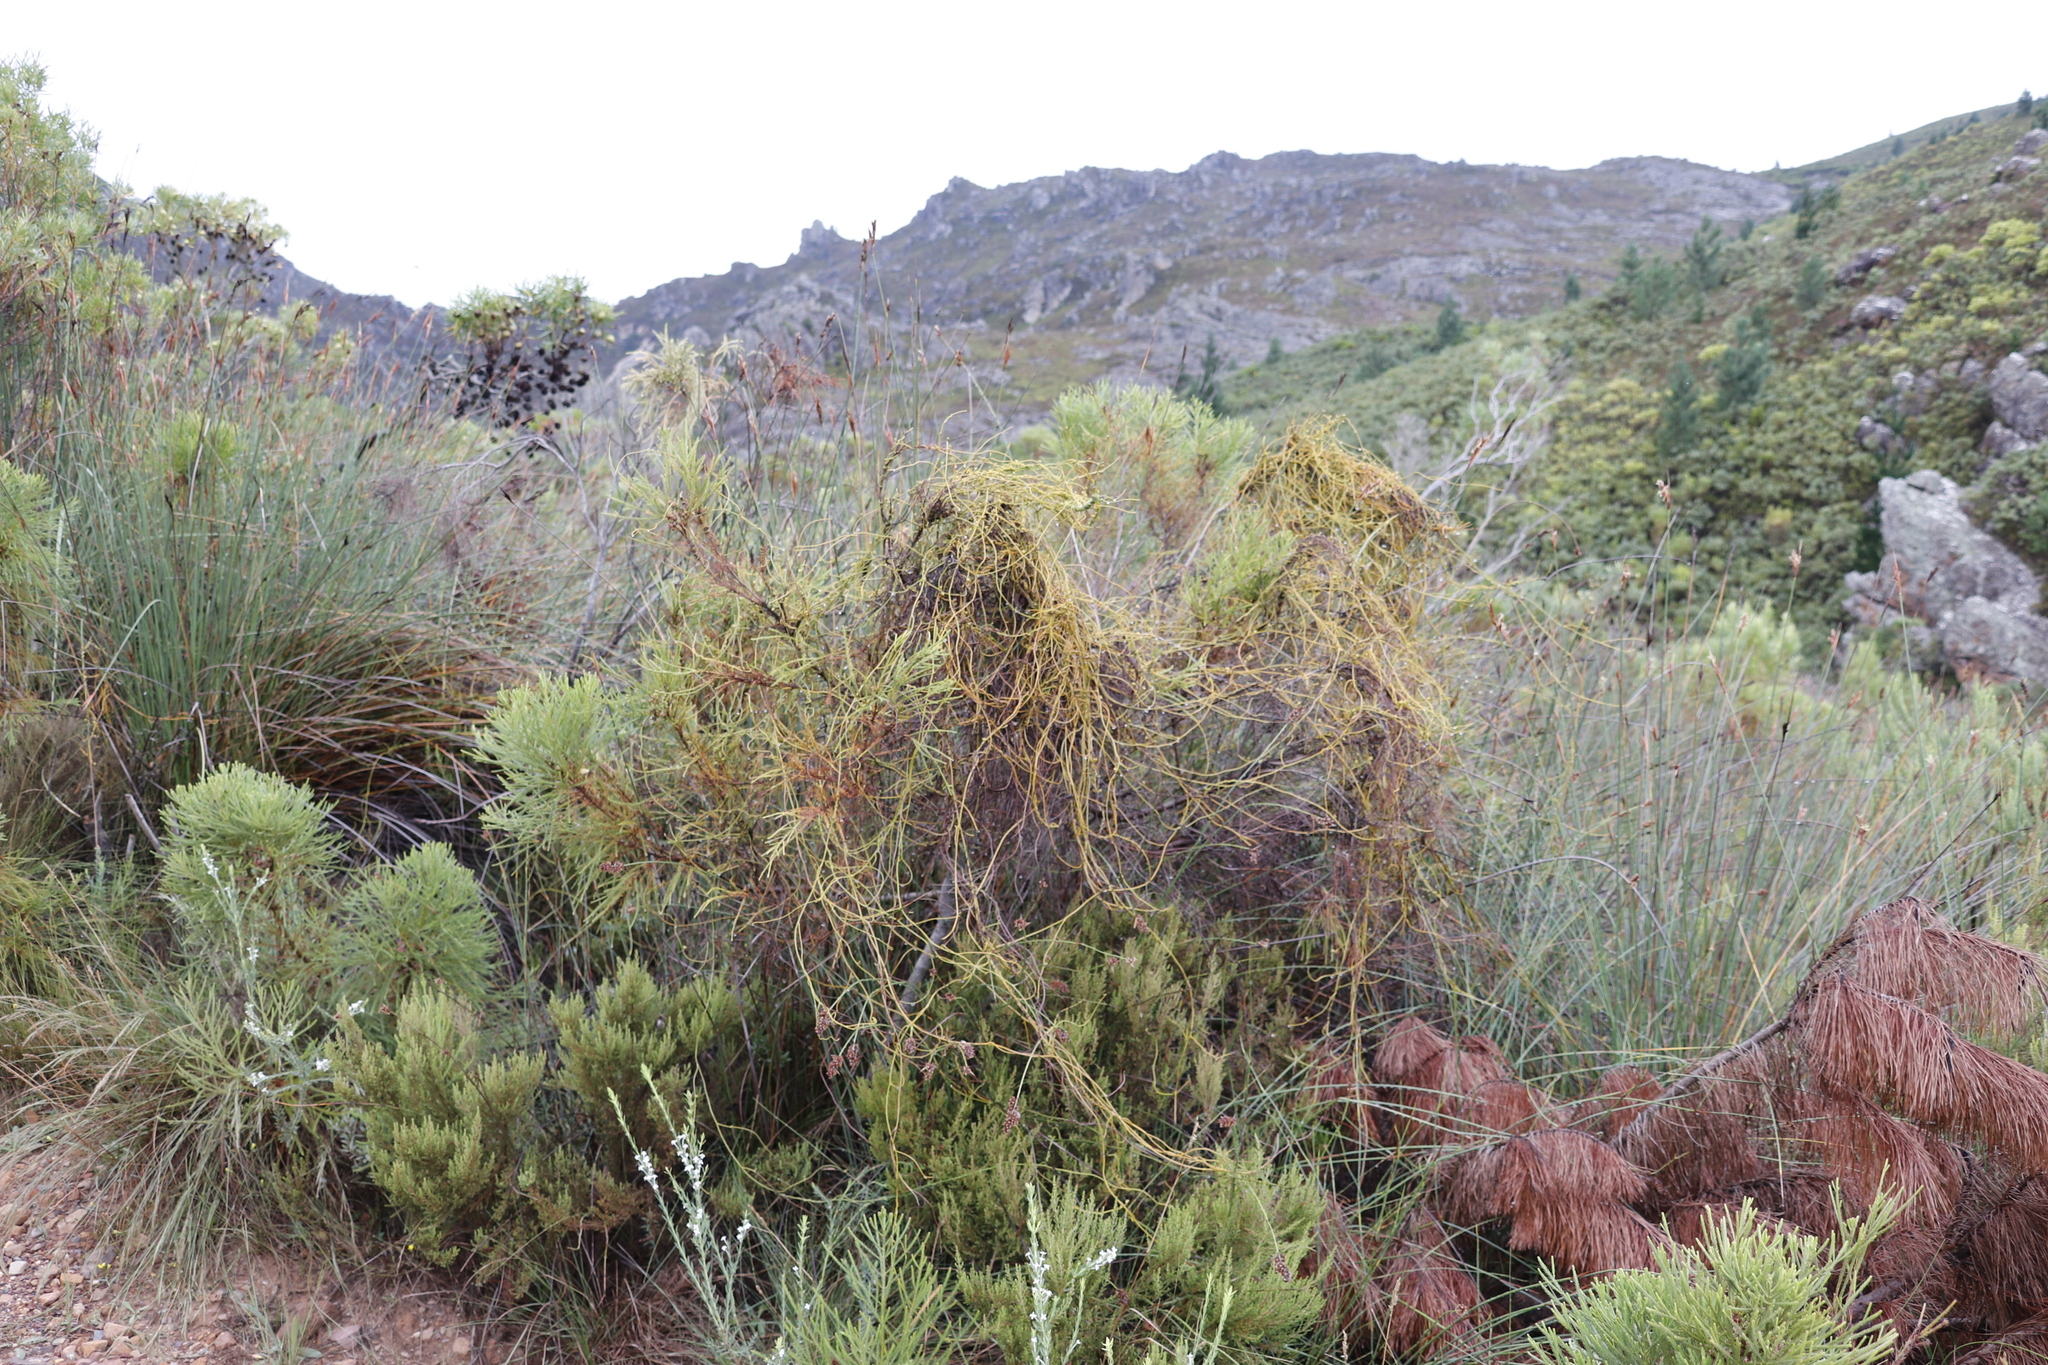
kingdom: Plantae
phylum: Tracheophyta
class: Magnoliopsida
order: Laurales
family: Lauraceae
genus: Cassytha
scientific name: Cassytha ciliolata
